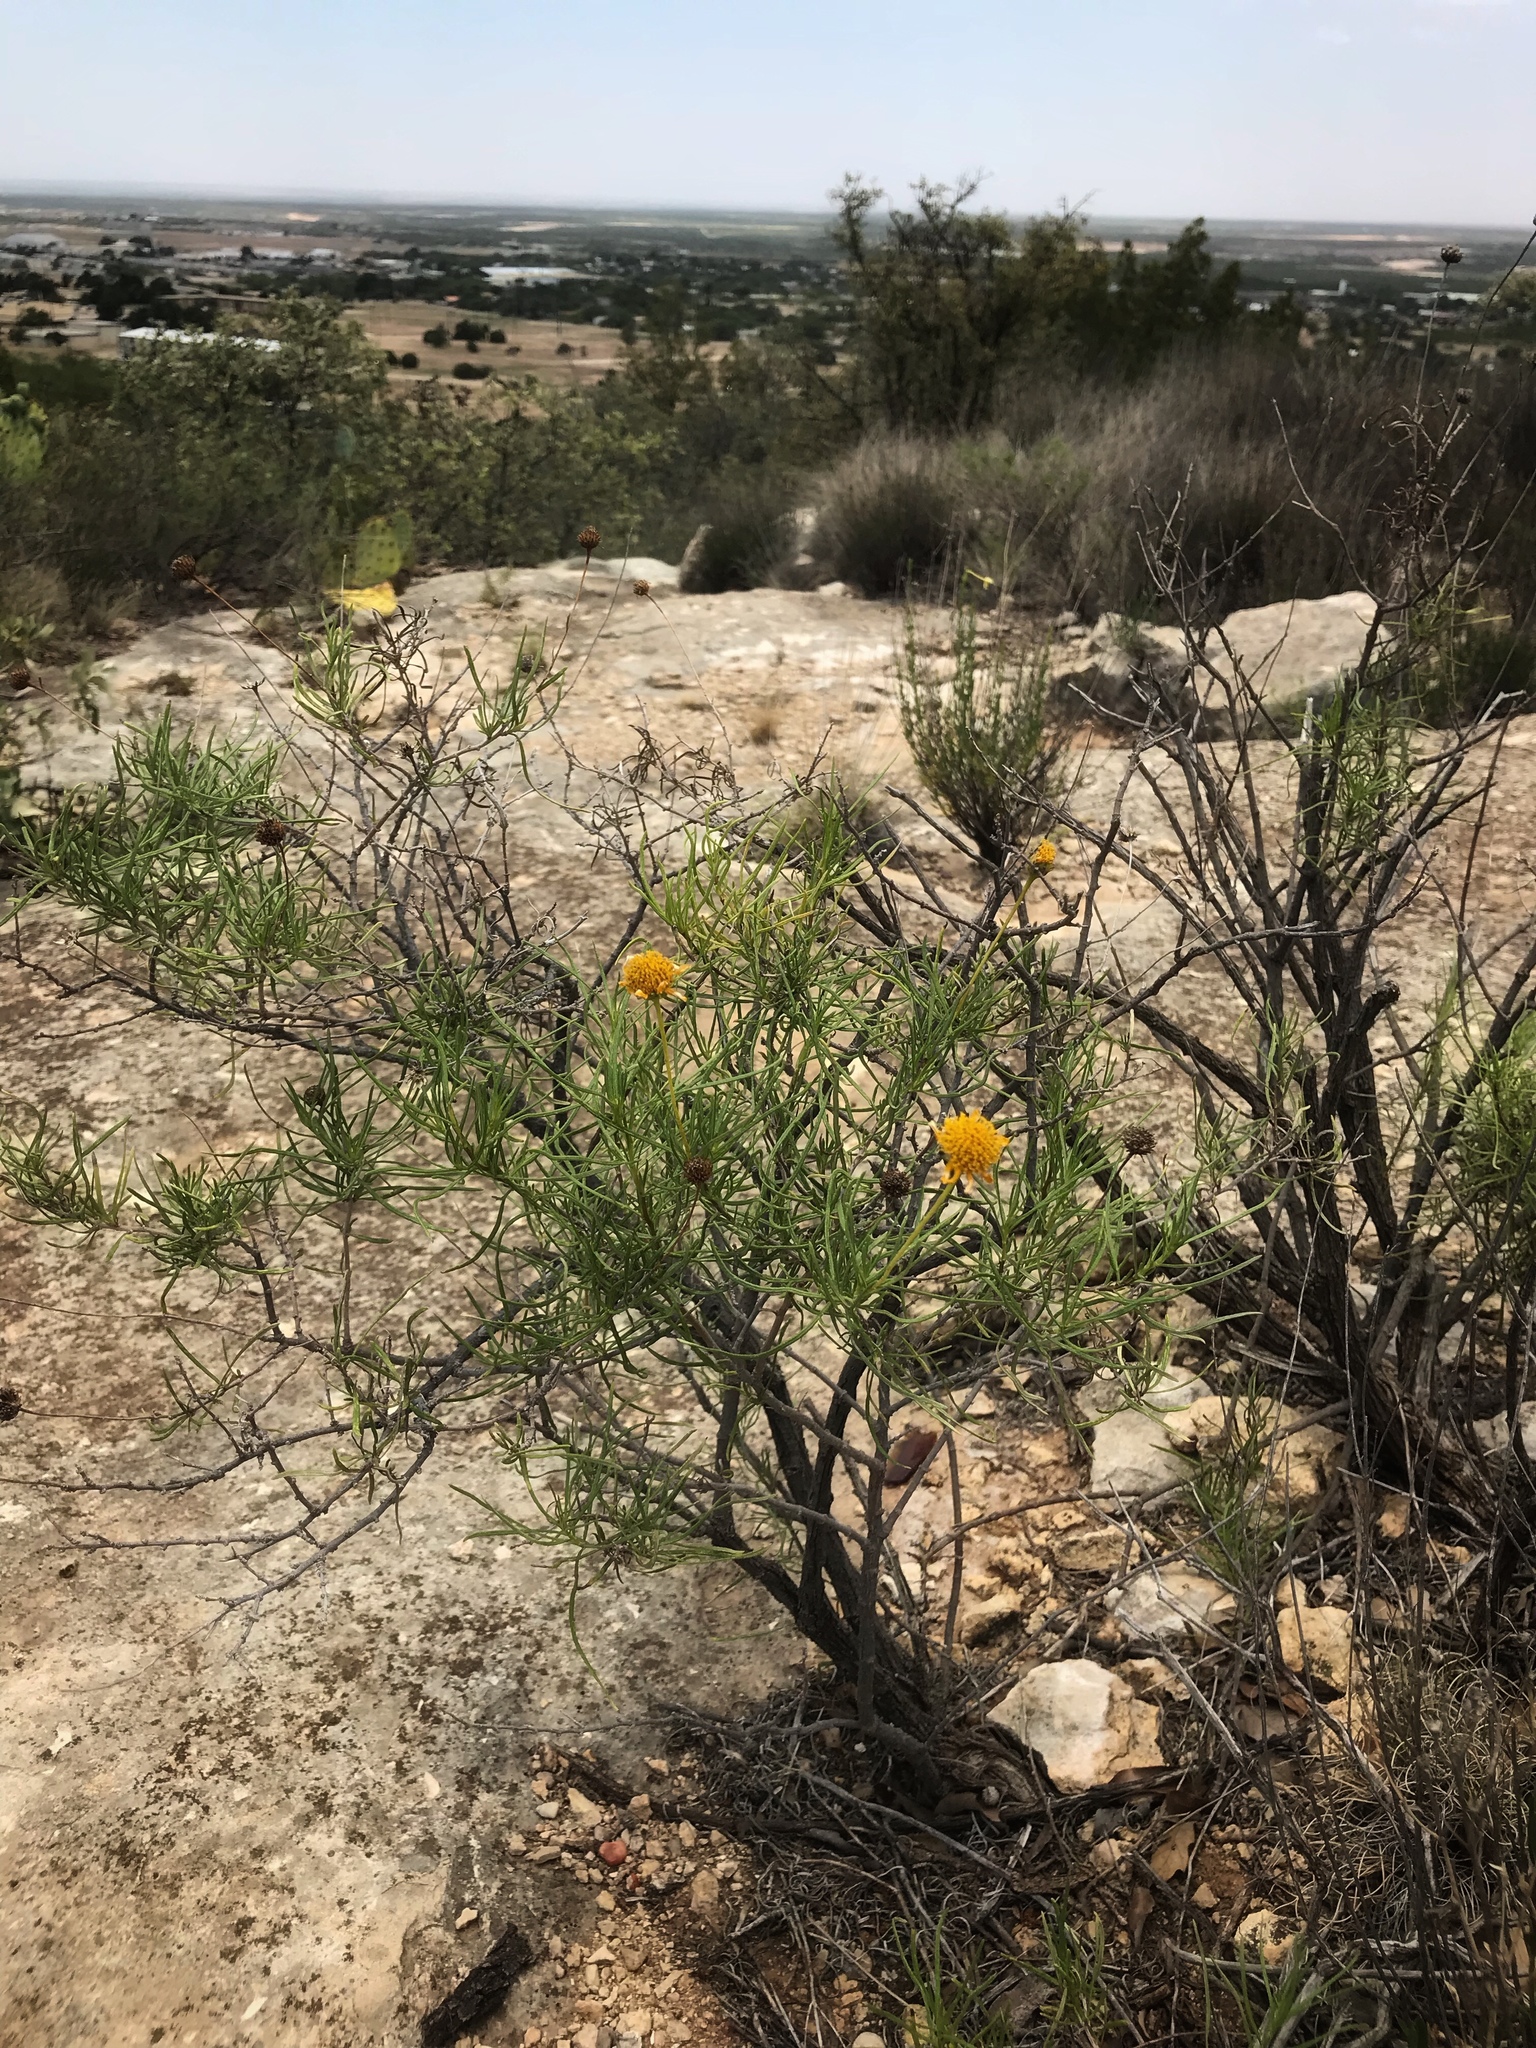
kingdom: Plantae
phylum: Tracheophyta
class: Magnoliopsida
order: Asterales
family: Asteraceae
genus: Sidneya
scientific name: Sidneya tenuifolia
